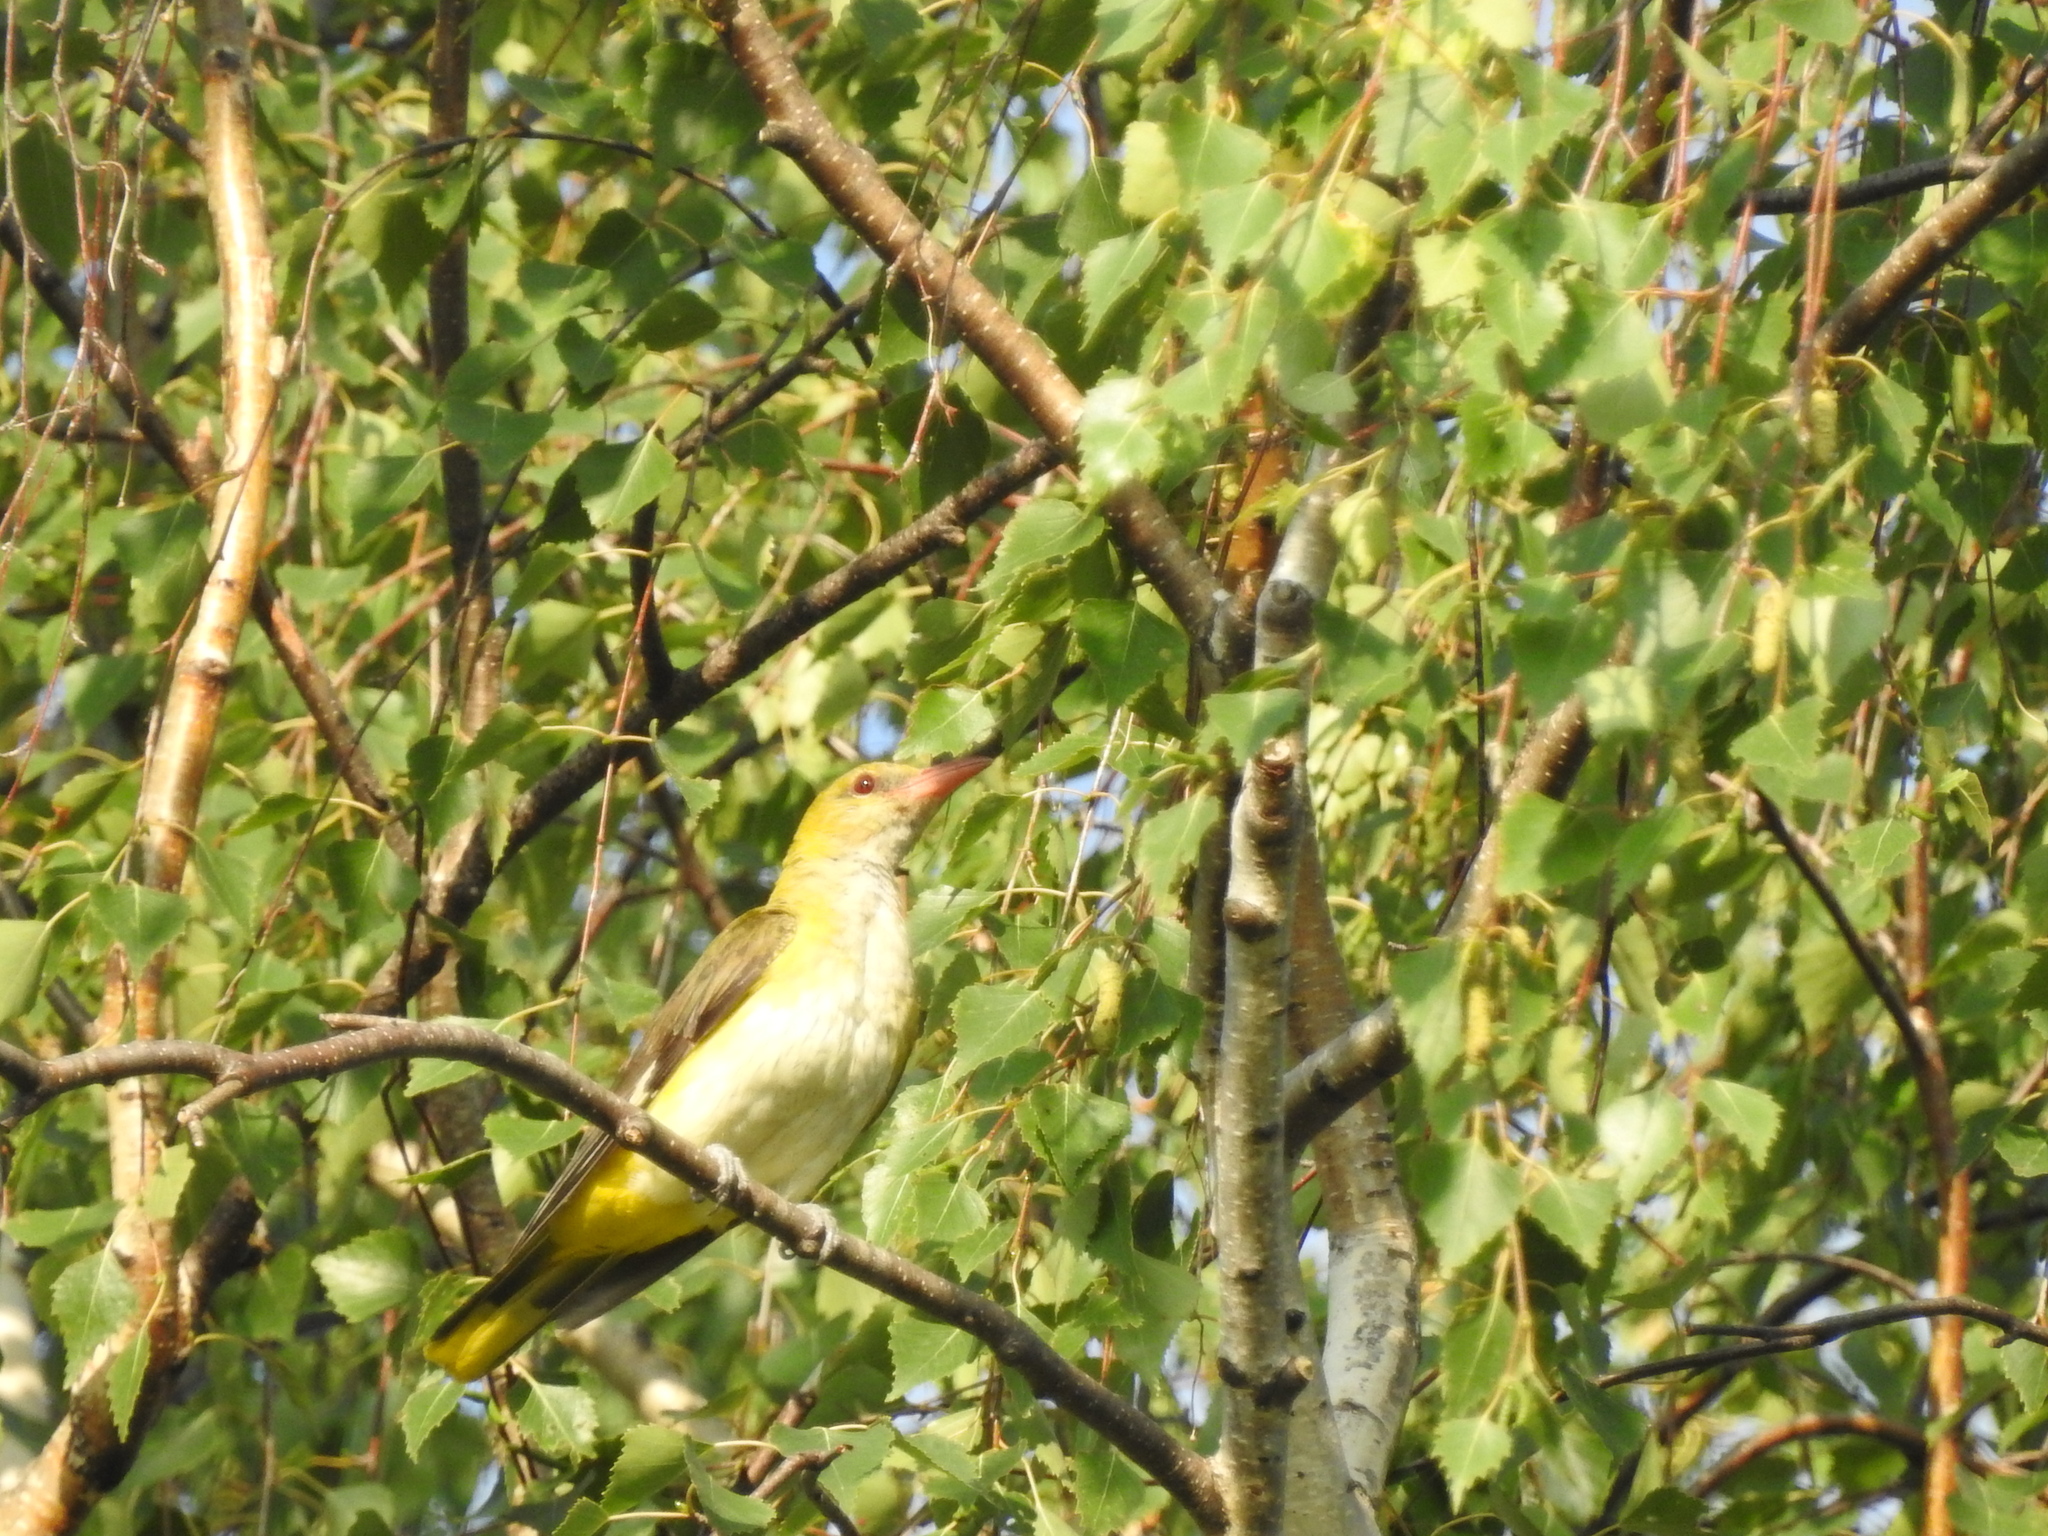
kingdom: Animalia
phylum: Chordata
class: Aves
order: Passeriformes
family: Oriolidae
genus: Oriolus
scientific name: Oriolus oriolus
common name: Eurasian golden oriole
